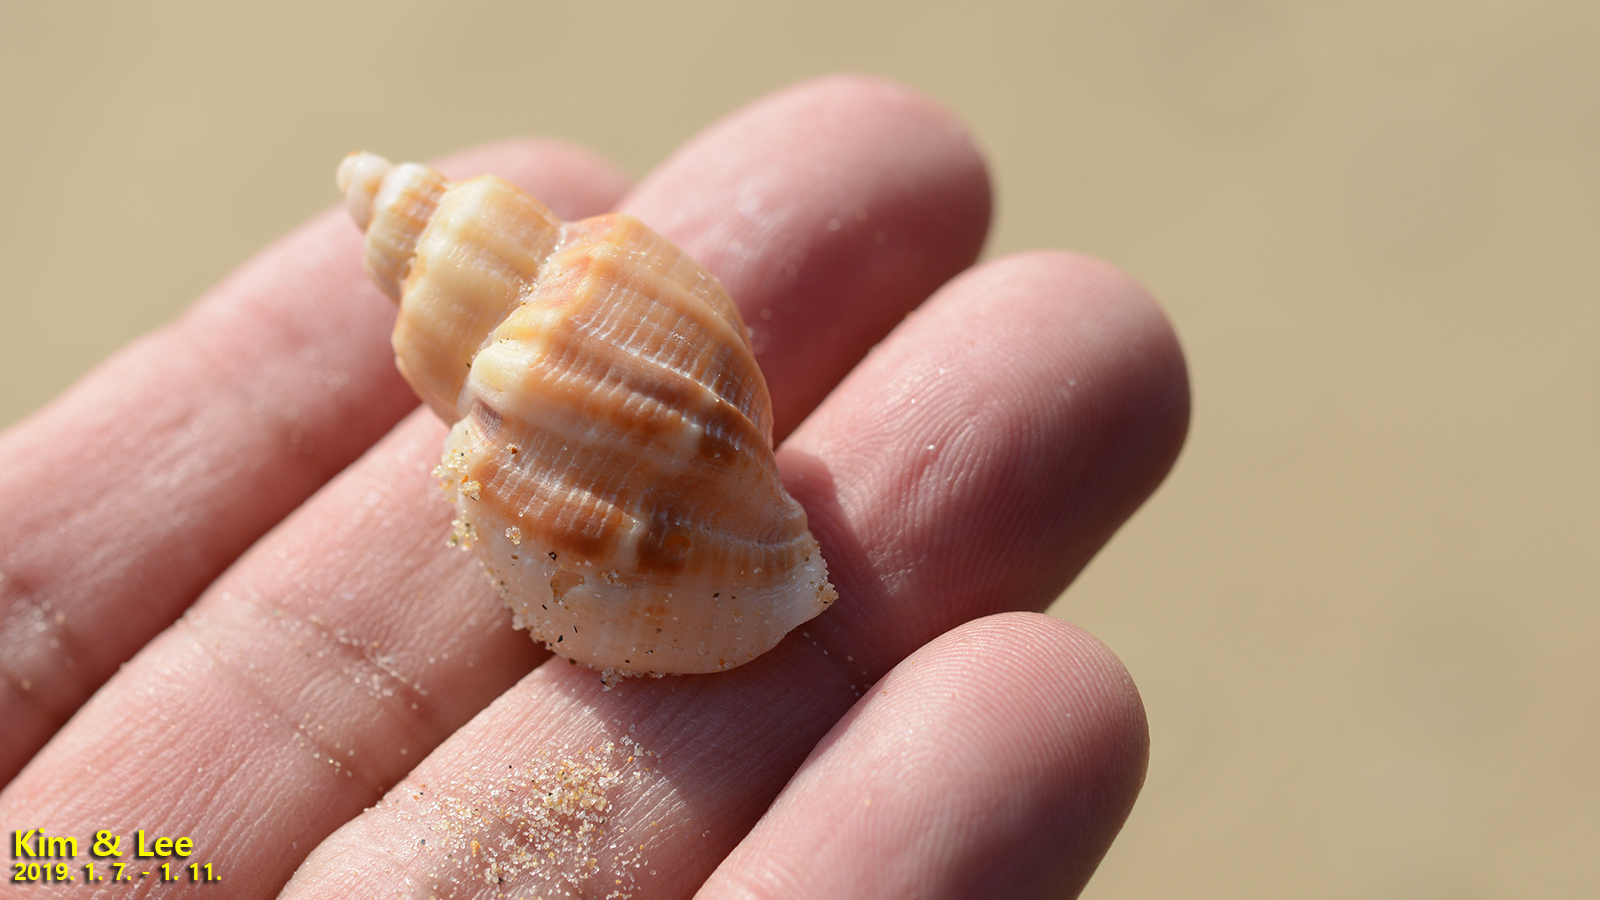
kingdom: Animalia
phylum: Mollusca
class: Gastropoda
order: Neogastropoda
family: Cancellariidae
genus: Sydaphera
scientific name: Sydaphera spengleriana
